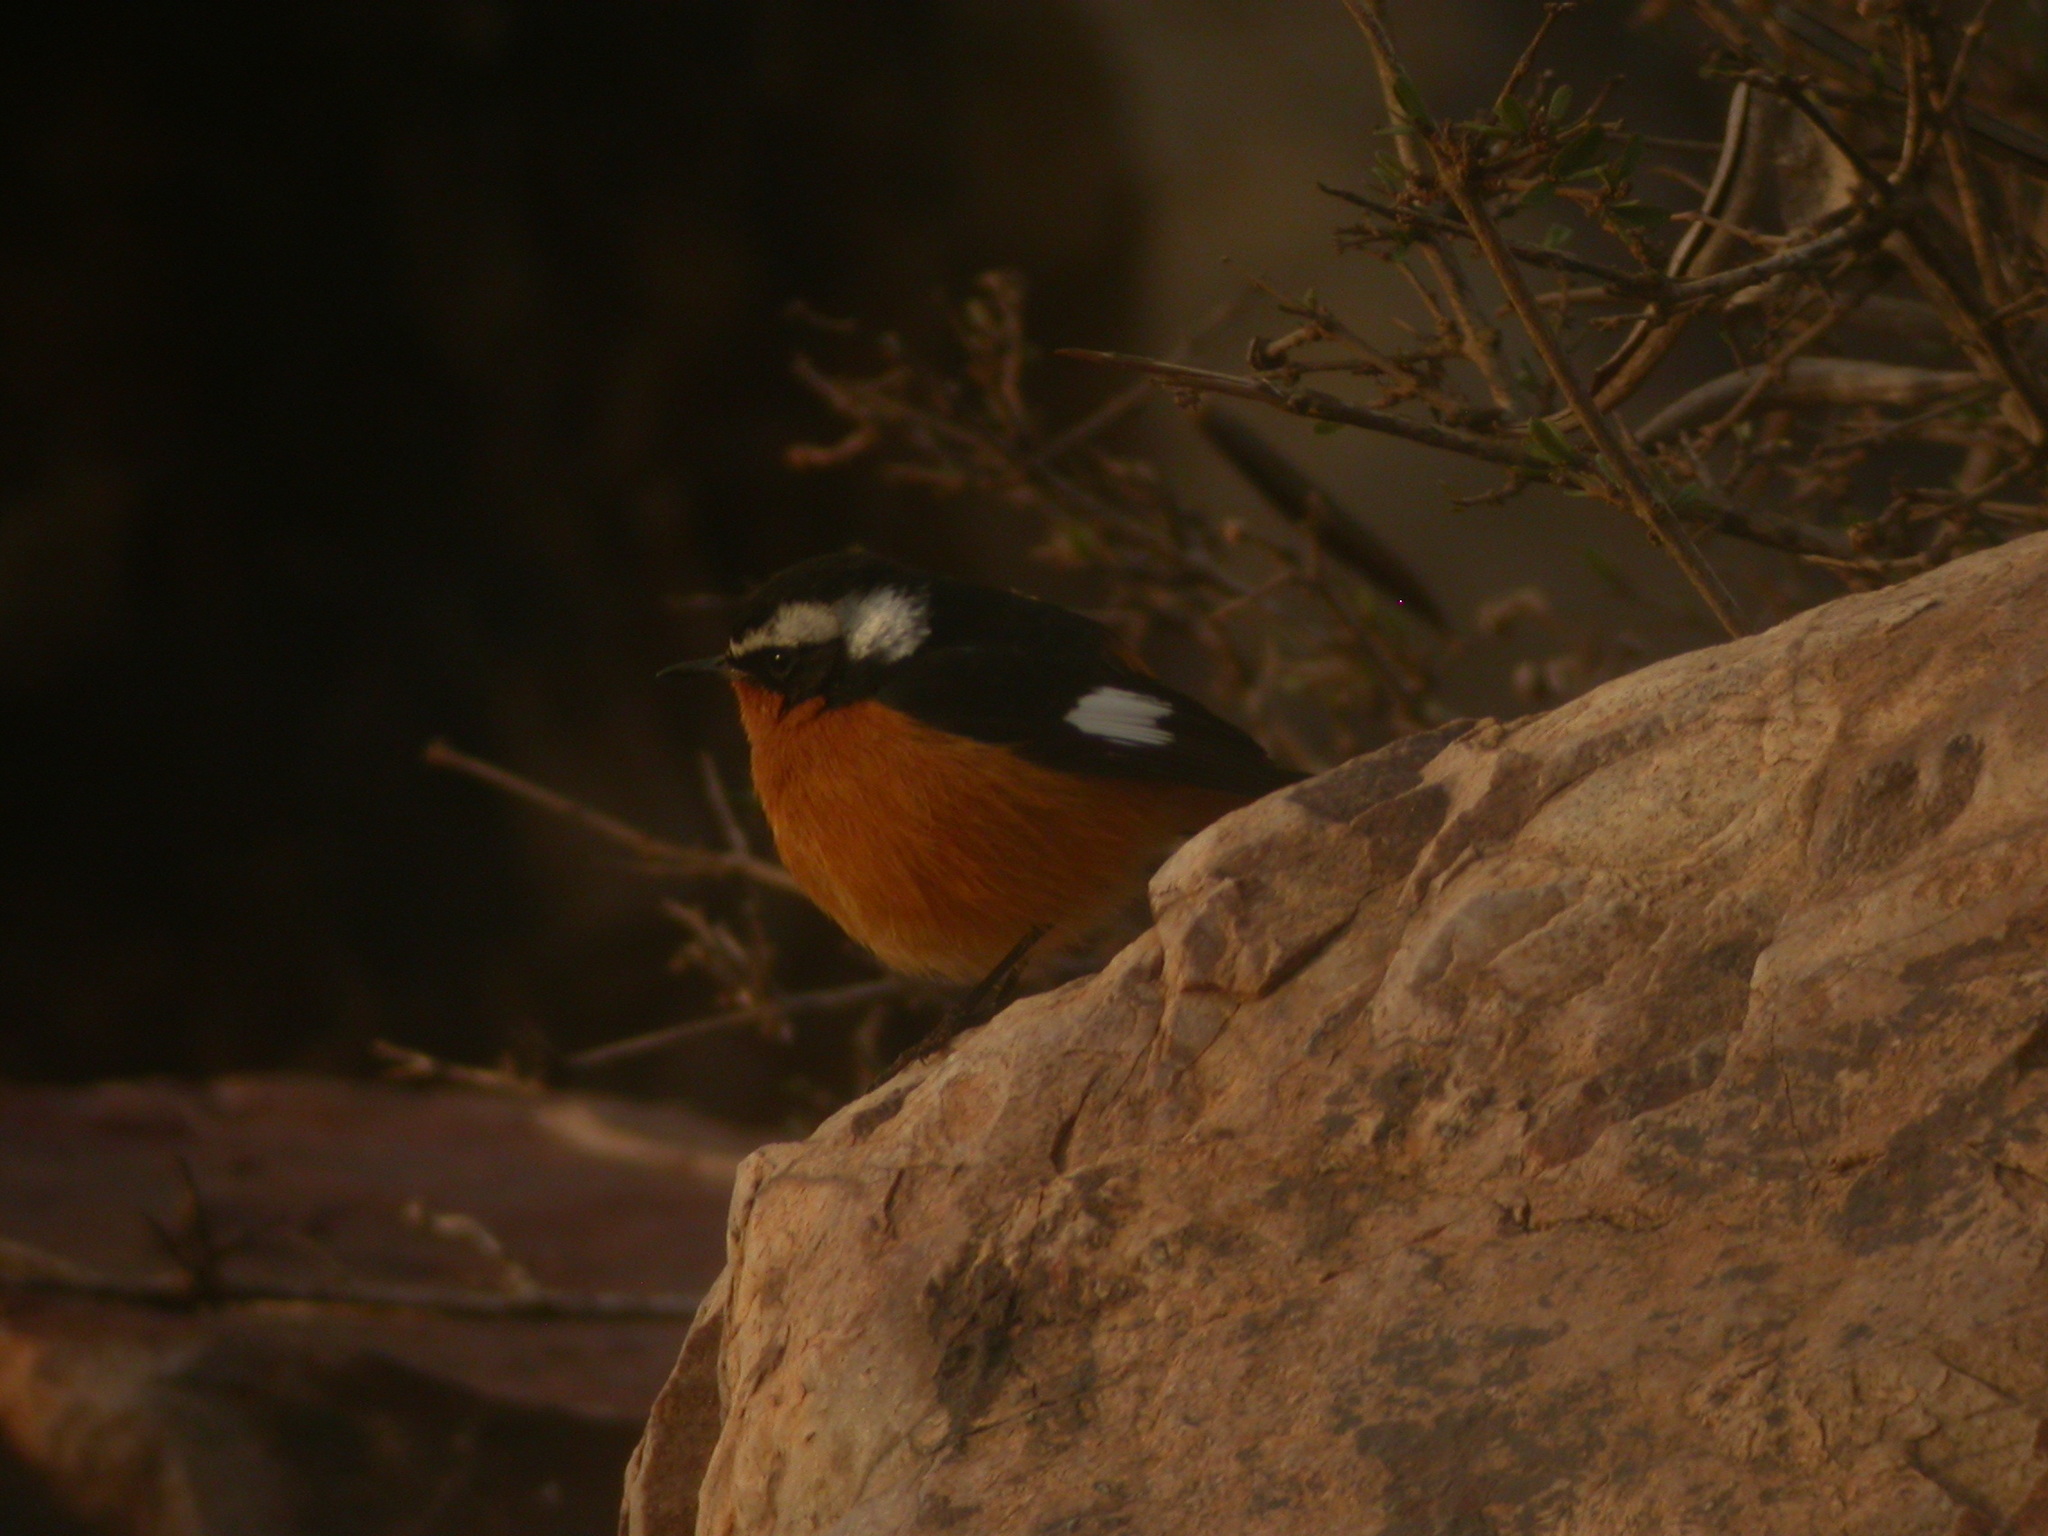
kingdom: Animalia
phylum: Chordata
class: Aves
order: Passeriformes
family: Muscicapidae
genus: Phoenicurus
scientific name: Phoenicurus moussieri
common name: Moussier's redstart
